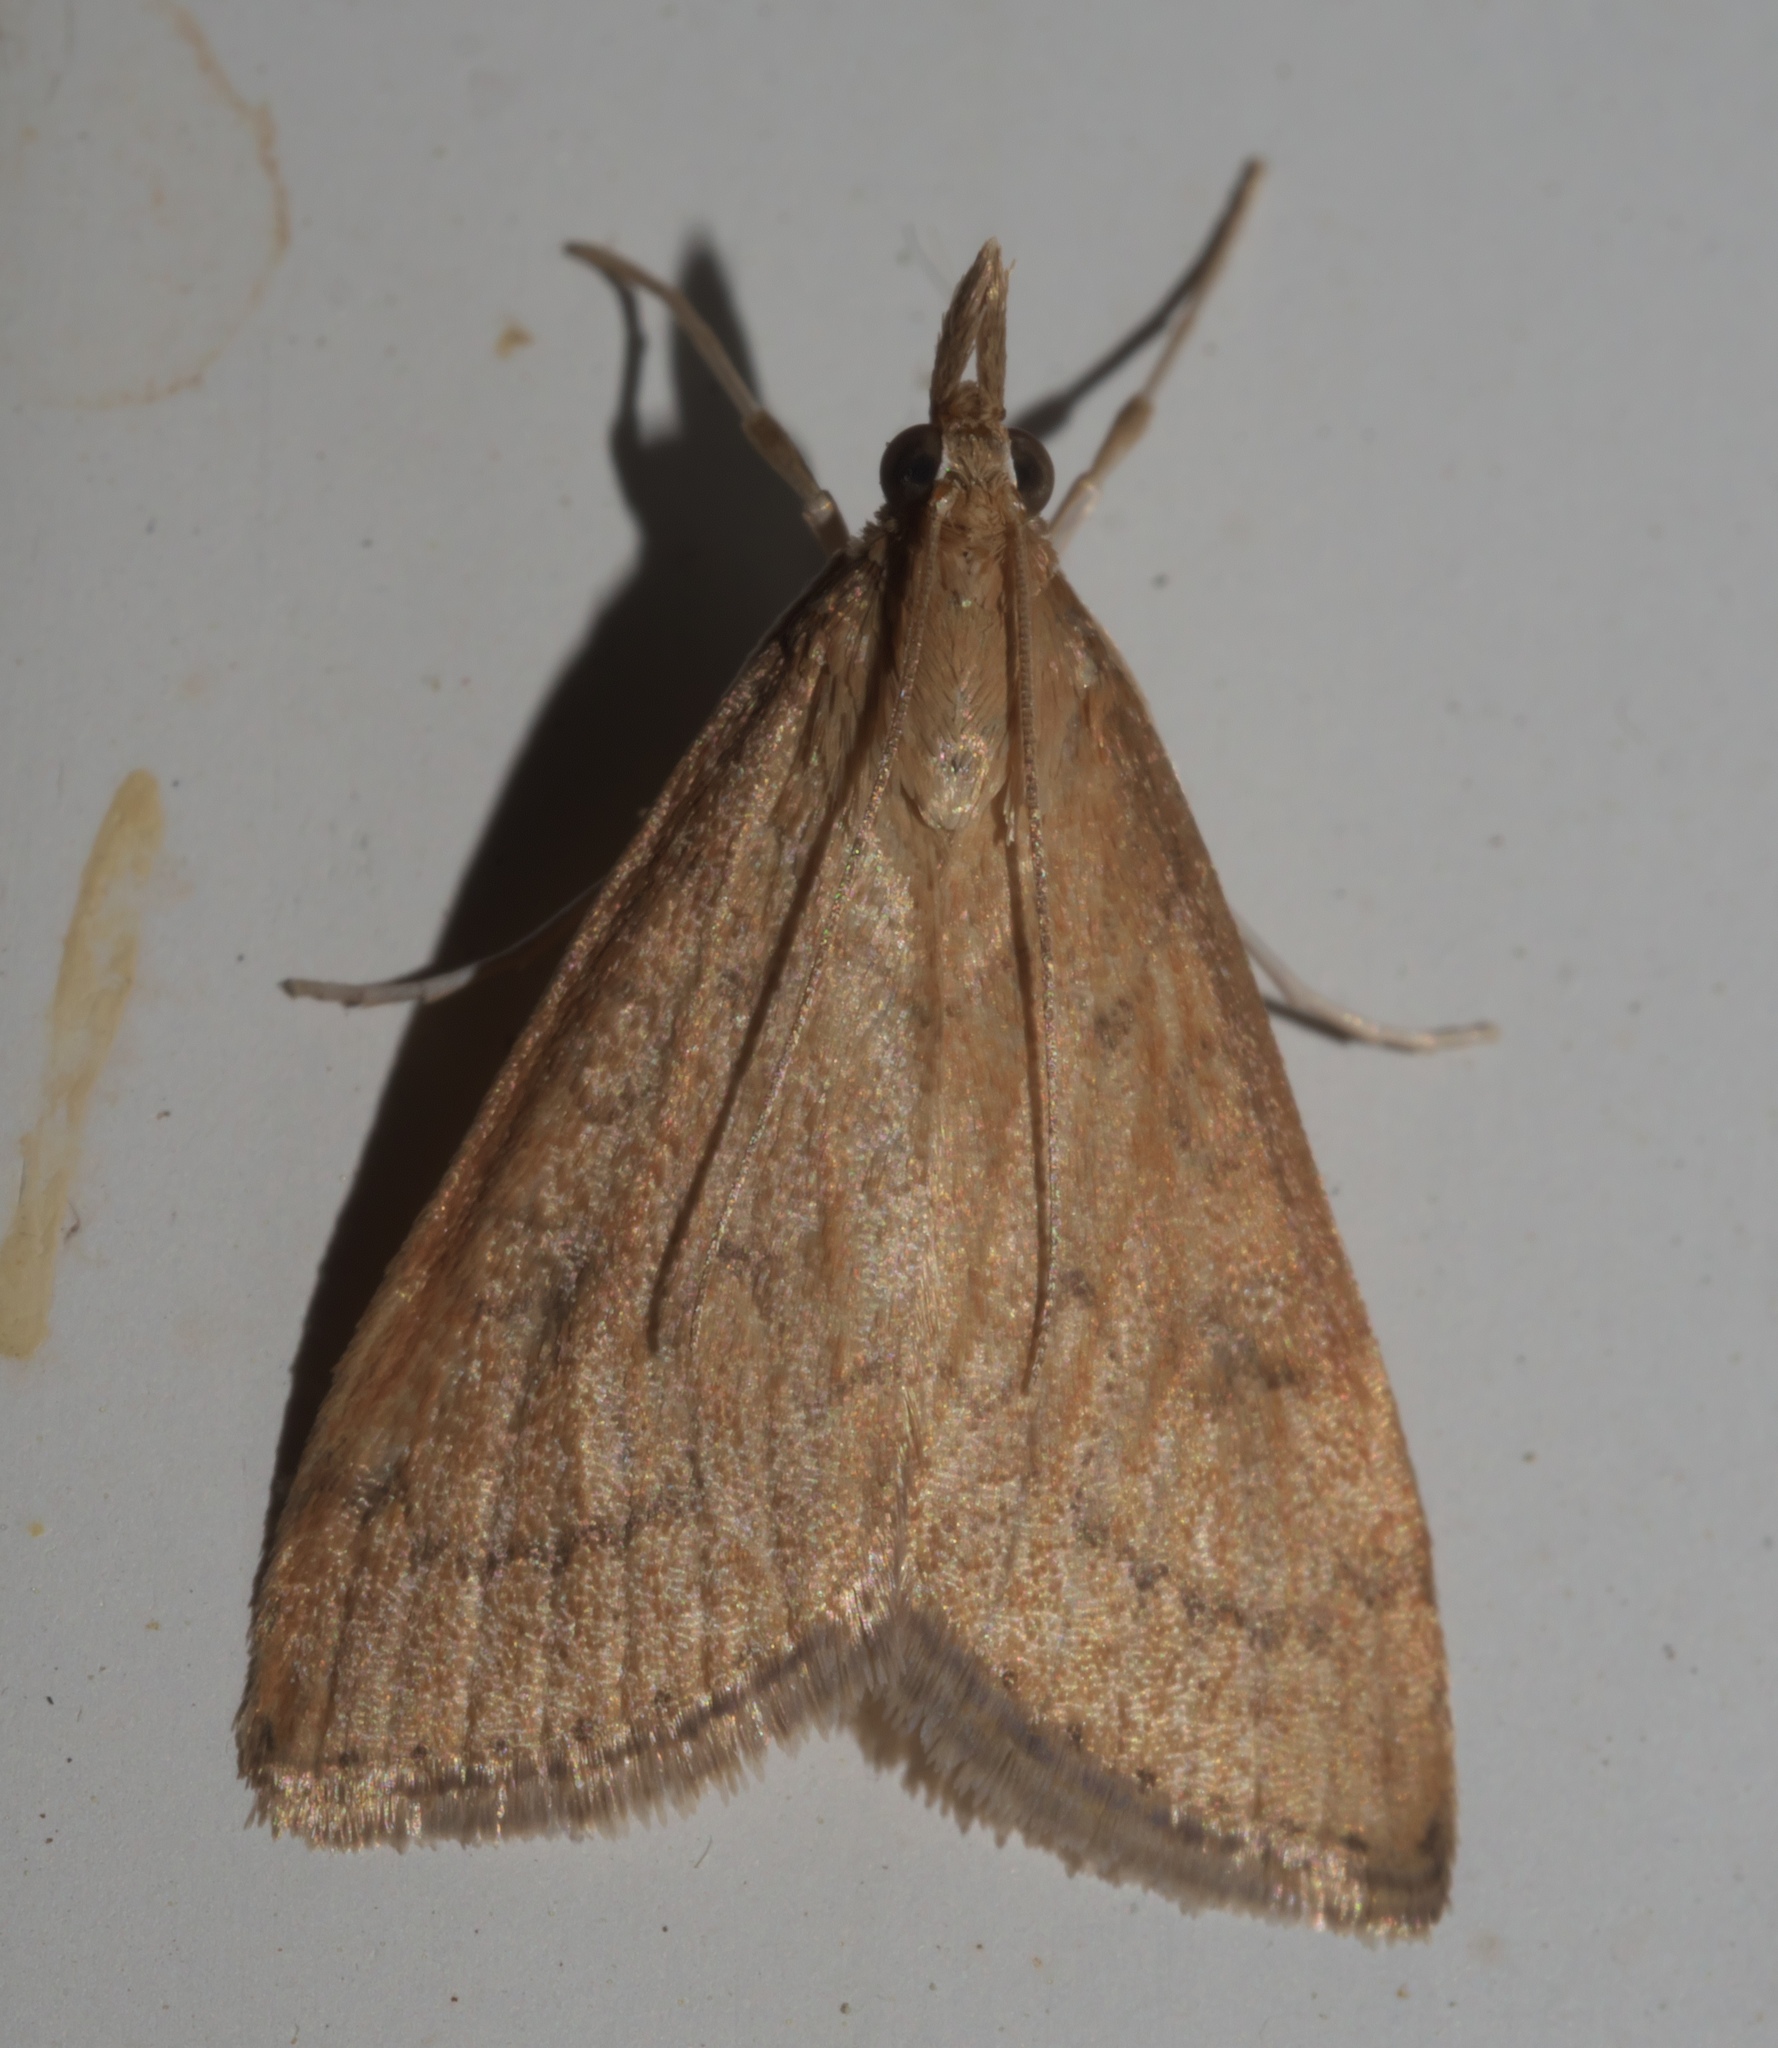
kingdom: Animalia
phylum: Arthropoda
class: Insecta
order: Lepidoptera
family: Crambidae
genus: Udea
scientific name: Udea rubigalis
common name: Celery leaftier moth
